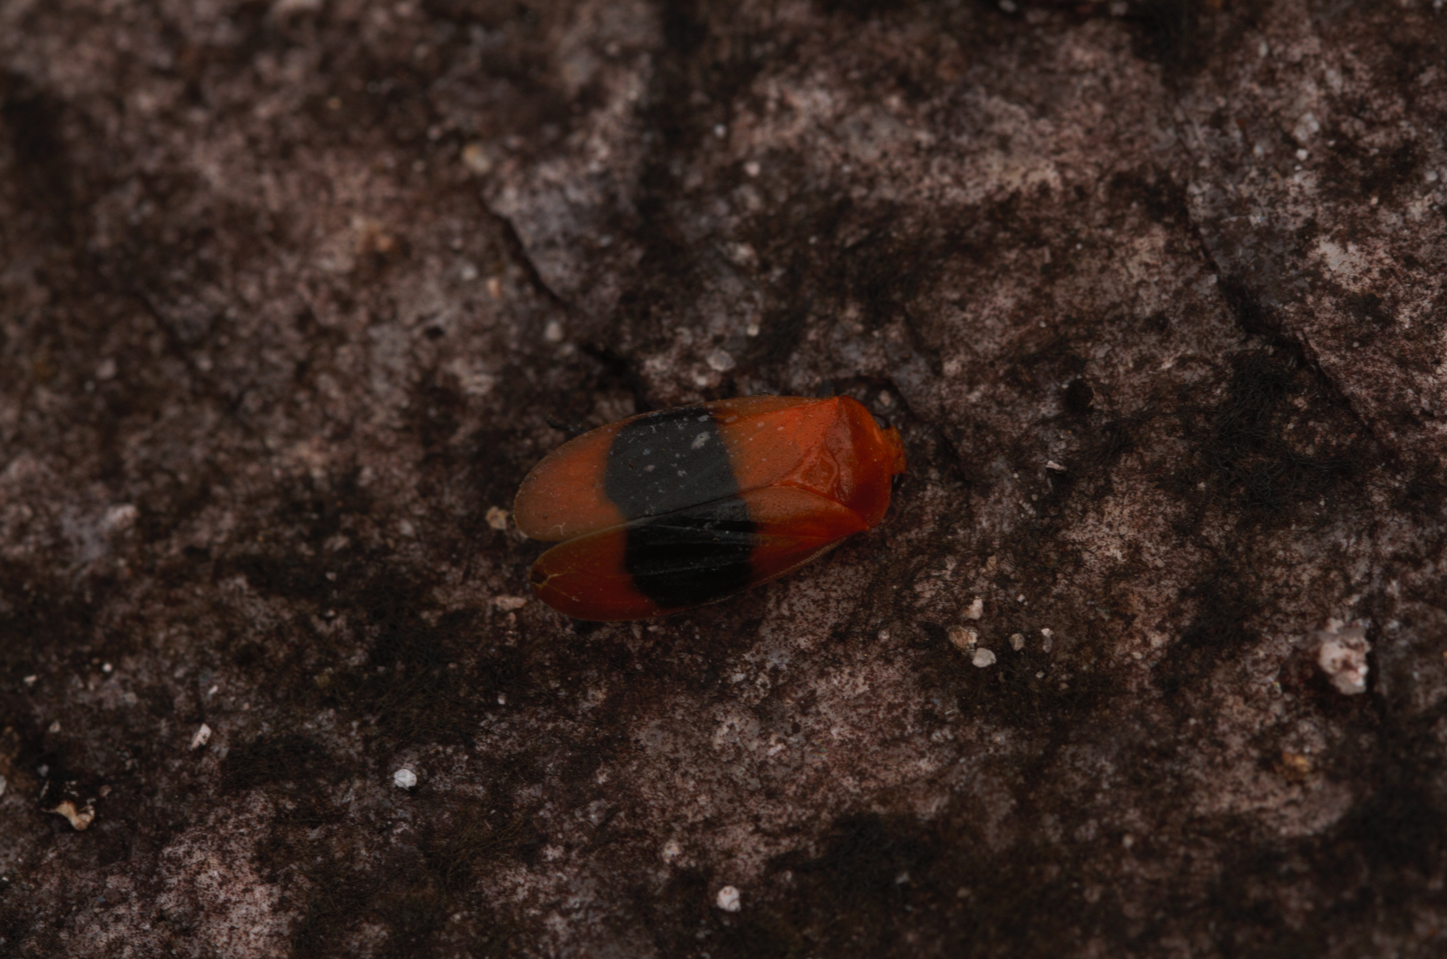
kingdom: Animalia
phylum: Arthropoda
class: Insecta
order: Hemiptera
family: Cercopidae
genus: Ischnorhina
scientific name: Ischnorhina ephippium
